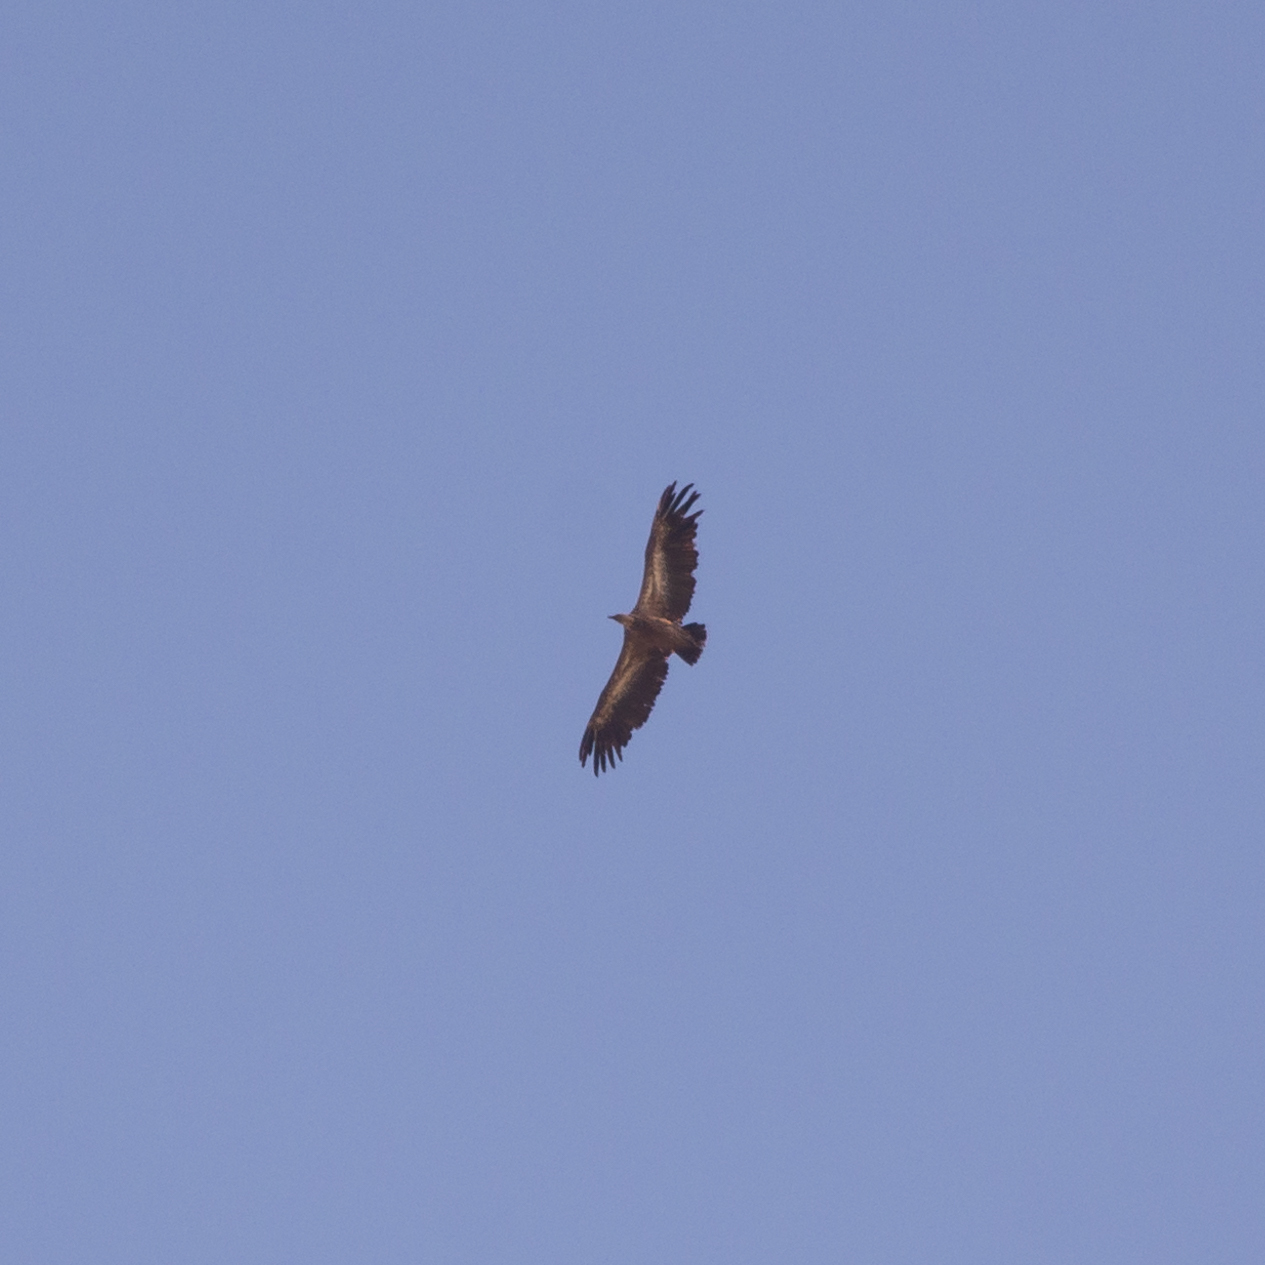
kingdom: Animalia
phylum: Chordata
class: Aves
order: Accipitriformes
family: Accipitridae
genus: Gyps
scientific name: Gyps fulvus
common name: Griffon vulture
